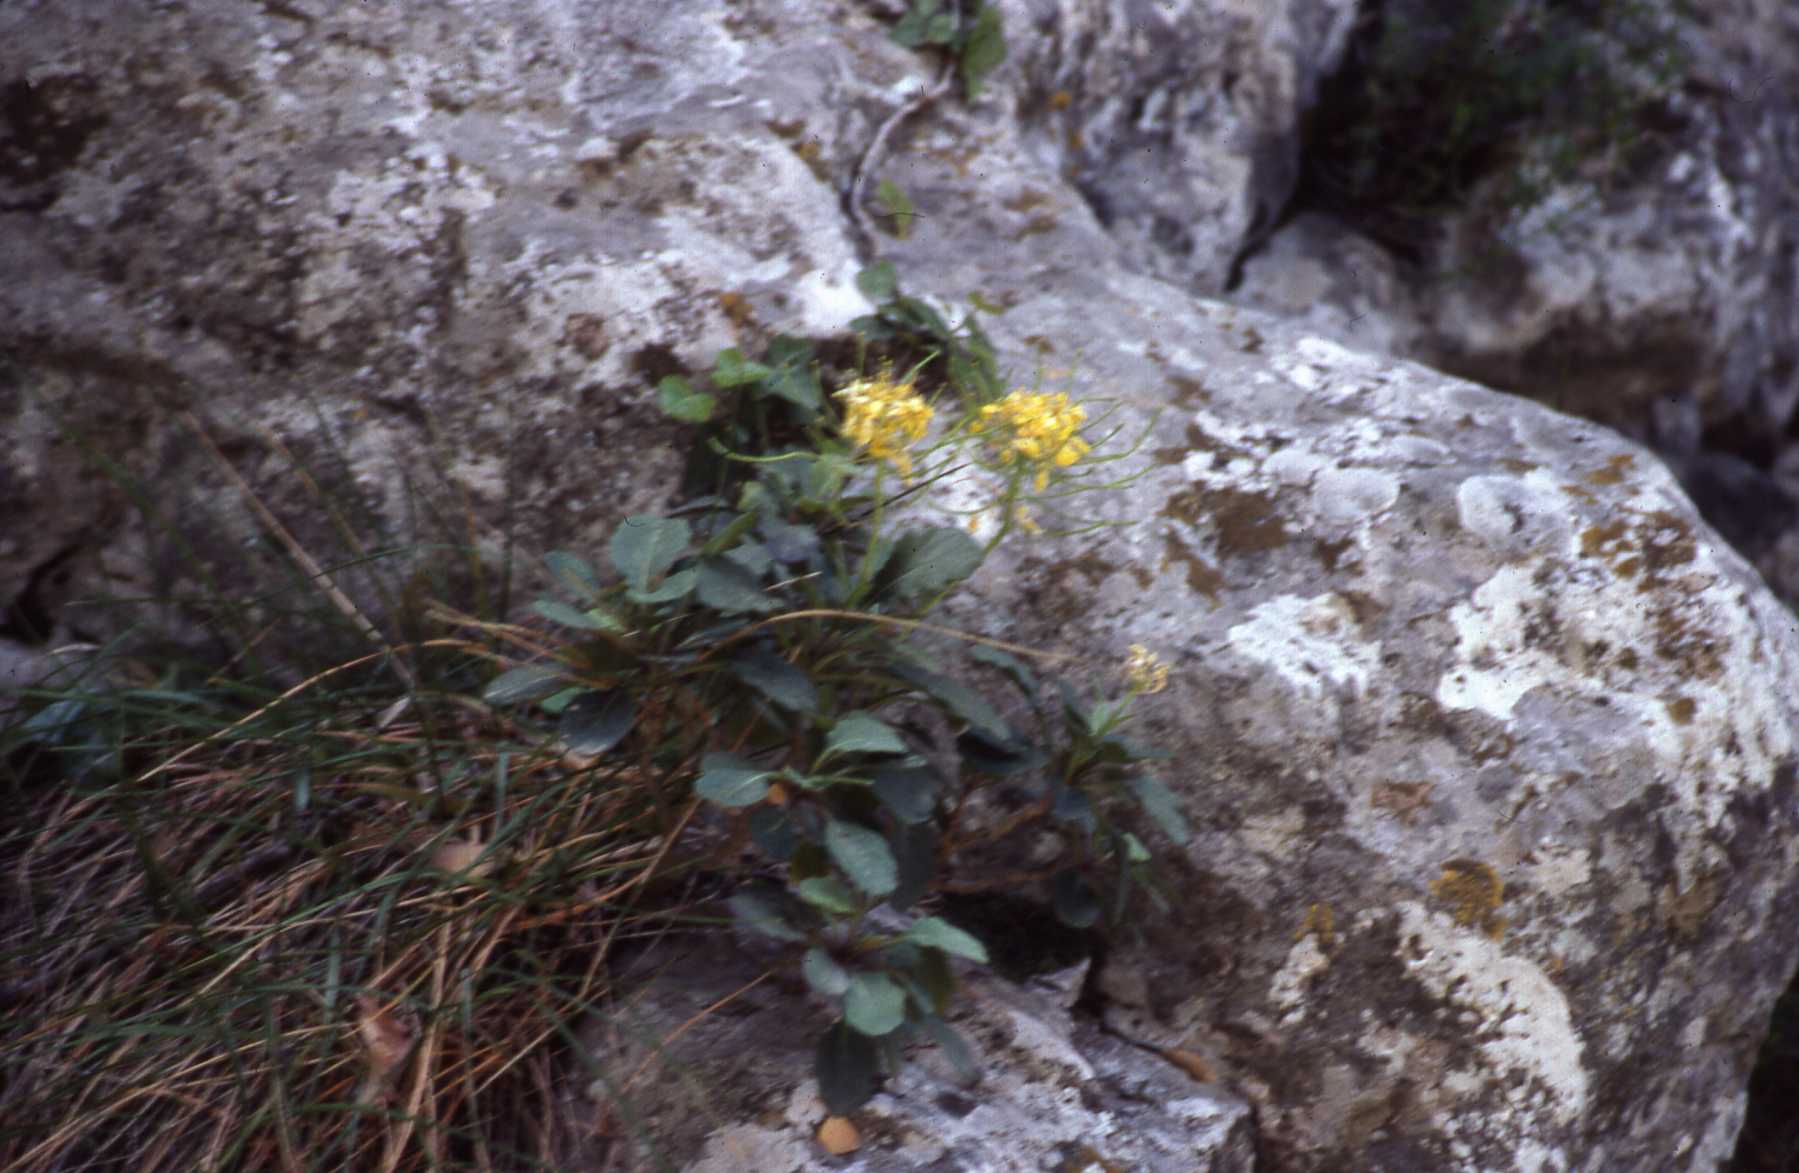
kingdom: Plantae
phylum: Tracheophyta
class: Magnoliopsida
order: Brassicales
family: Brassicaceae
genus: Brassica
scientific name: Brassica balearica
